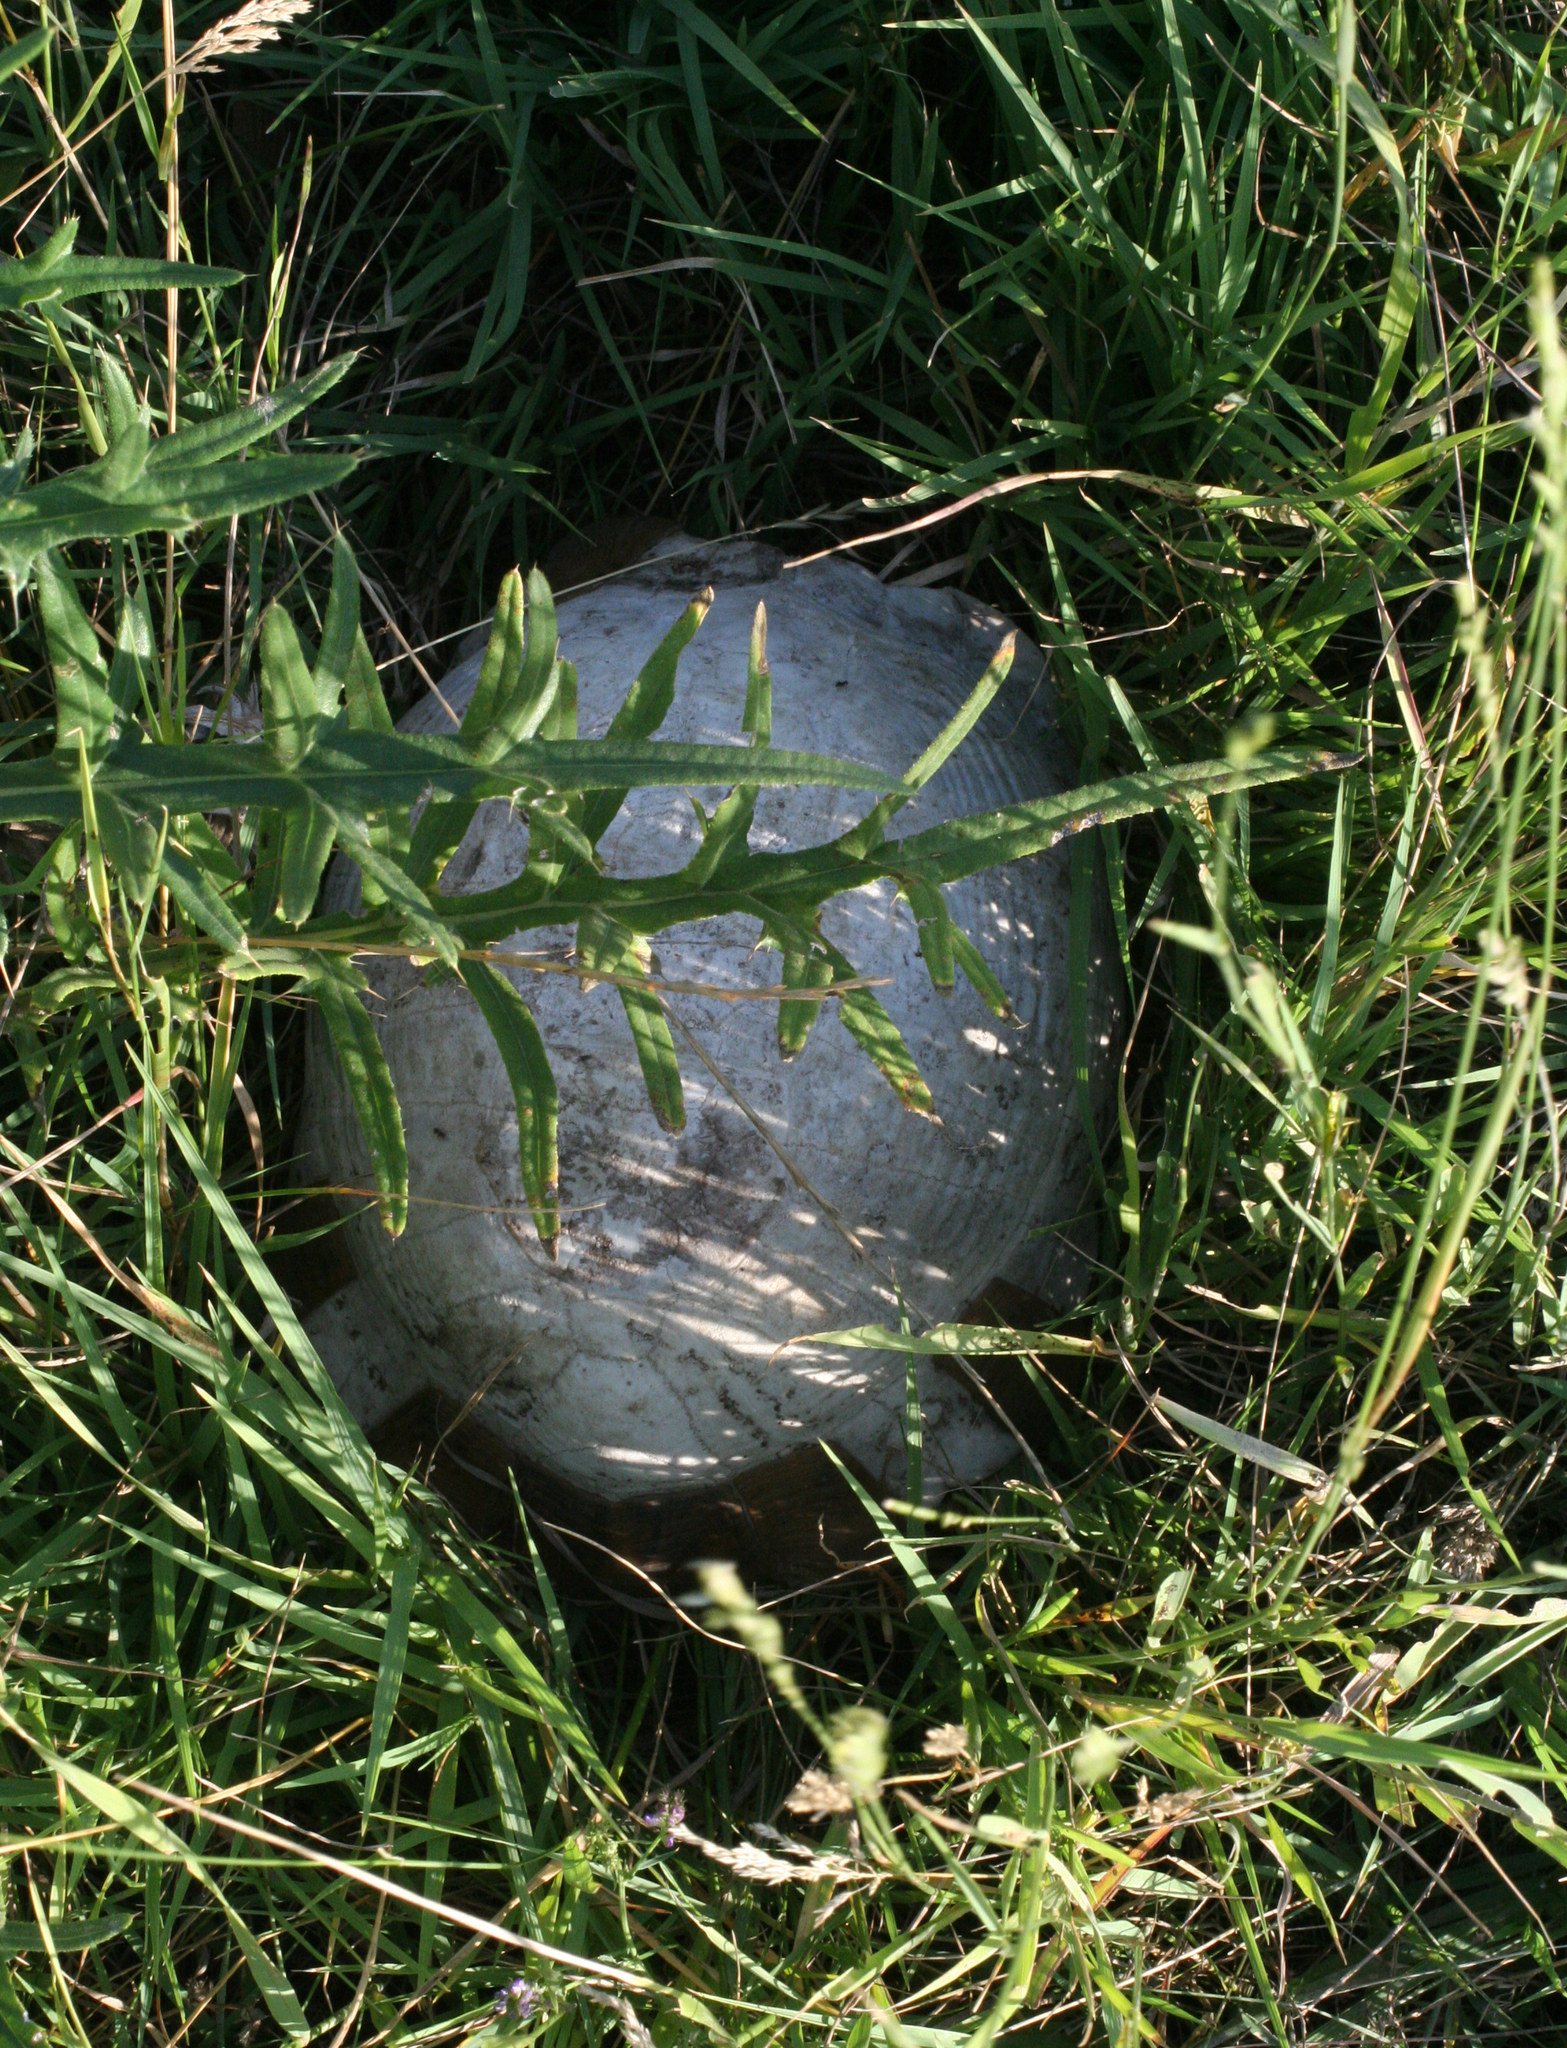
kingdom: Animalia
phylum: Chordata
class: Testudines
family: Testudinidae
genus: Testudo
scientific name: Testudo graeca
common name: Common tortoise
